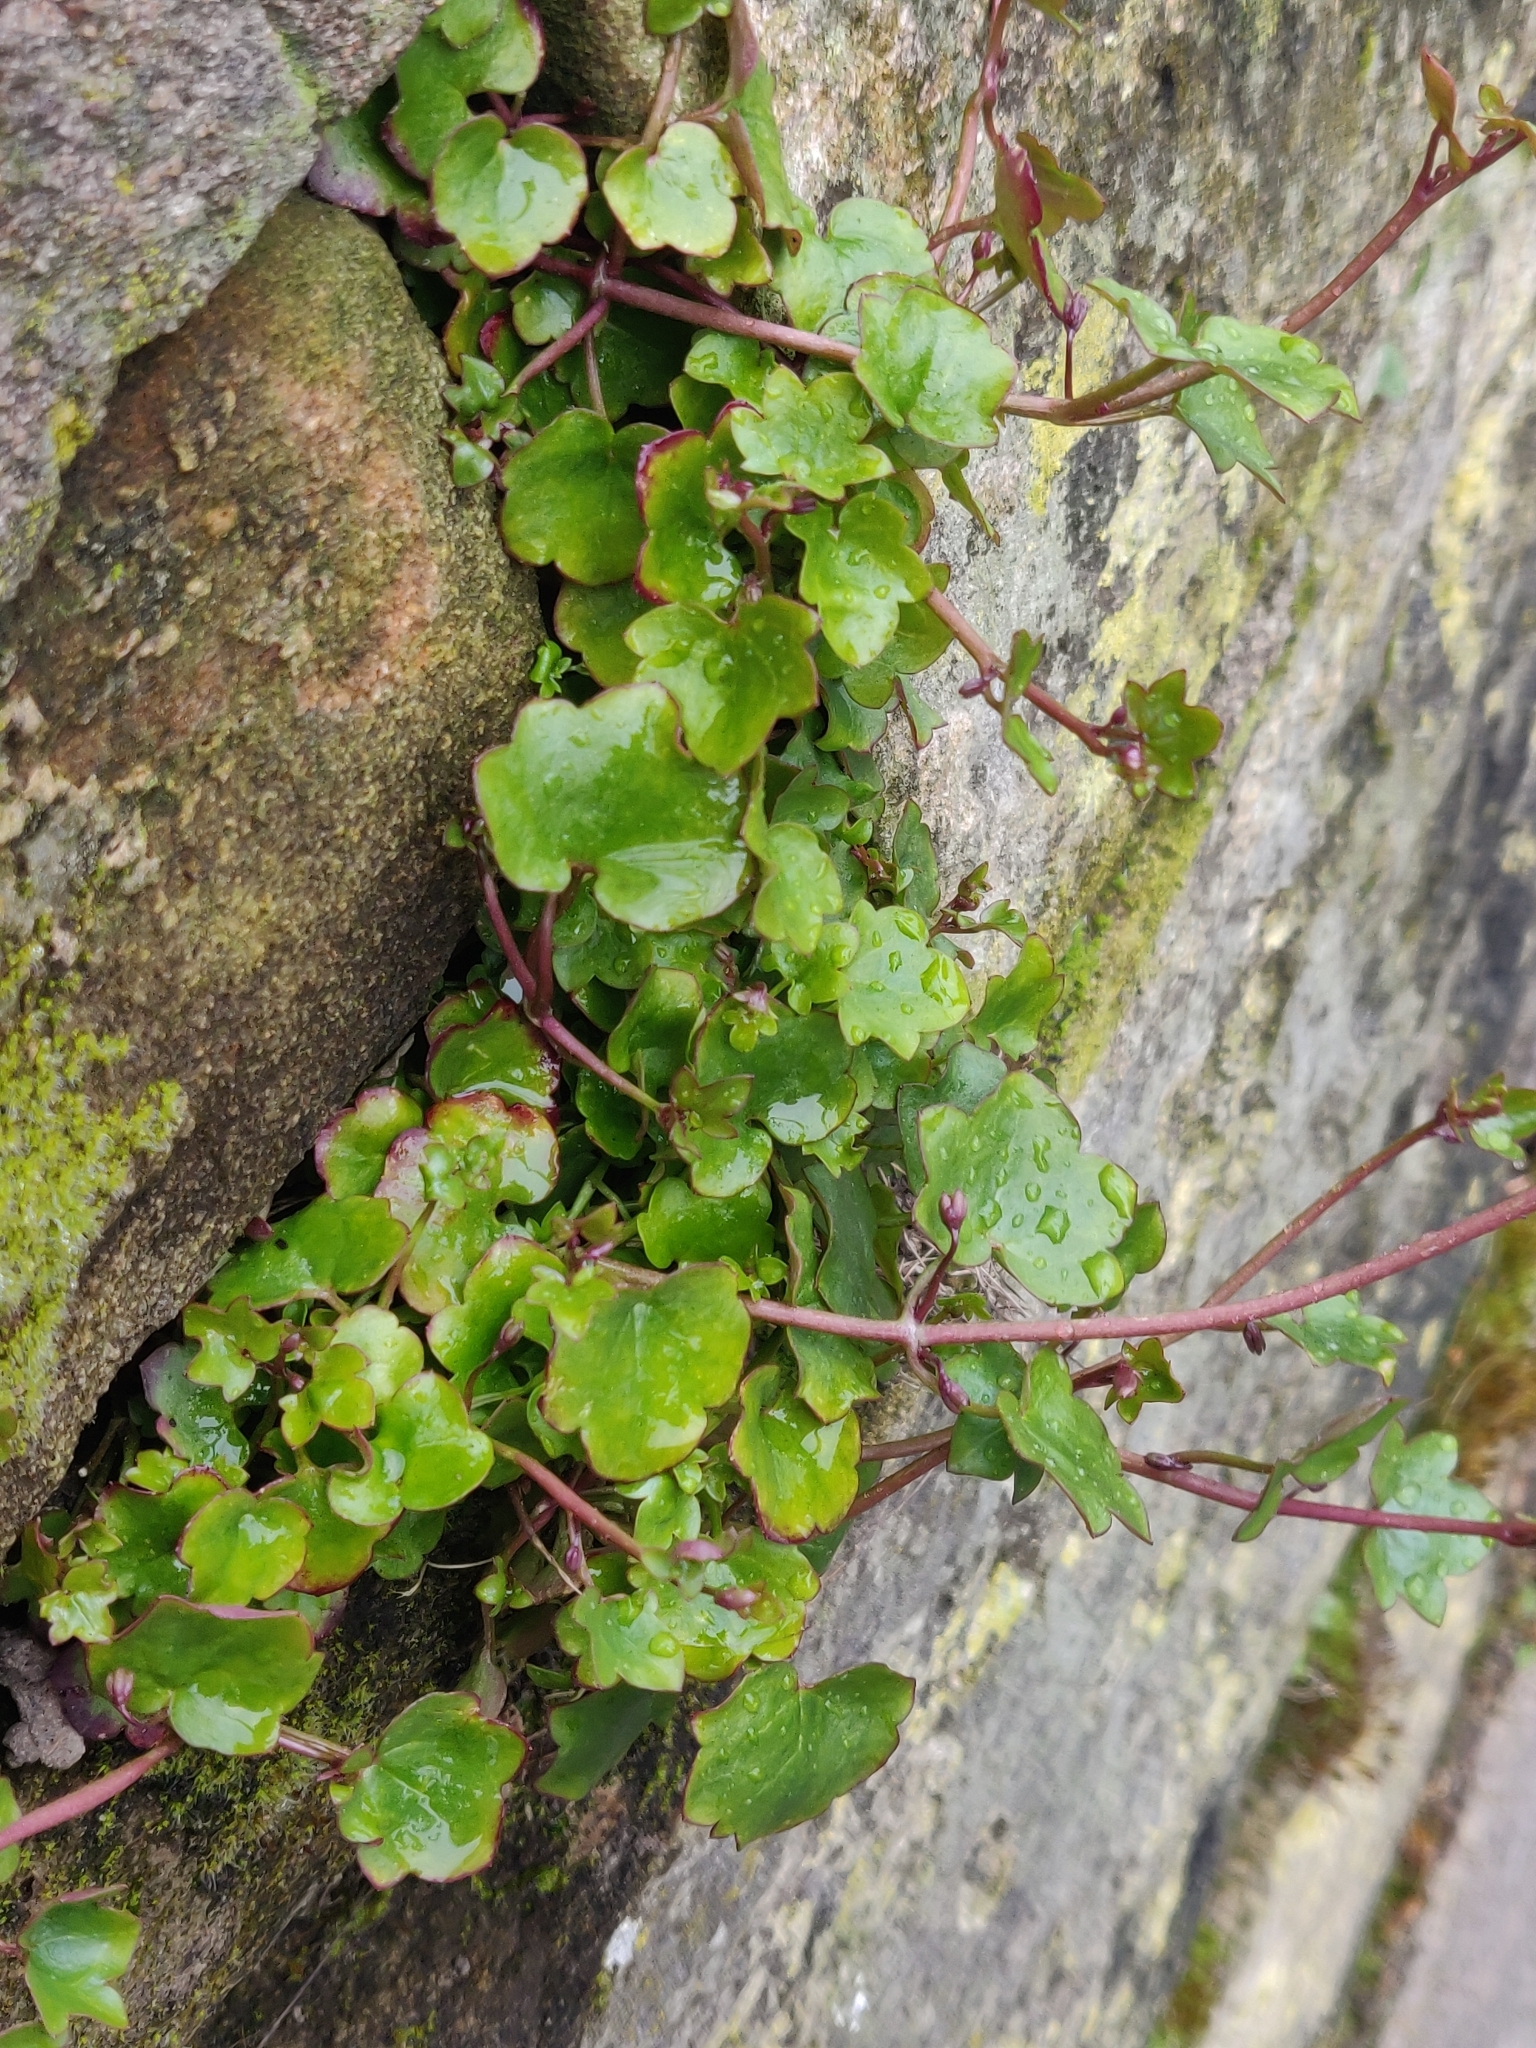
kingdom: Plantae
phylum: Tracheophyta
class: Magnoliopsida
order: Lamiales
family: Plantaginaceae
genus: Cymbalaria
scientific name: Cymbalaria muralis
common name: Ivy-leaved toadflax
